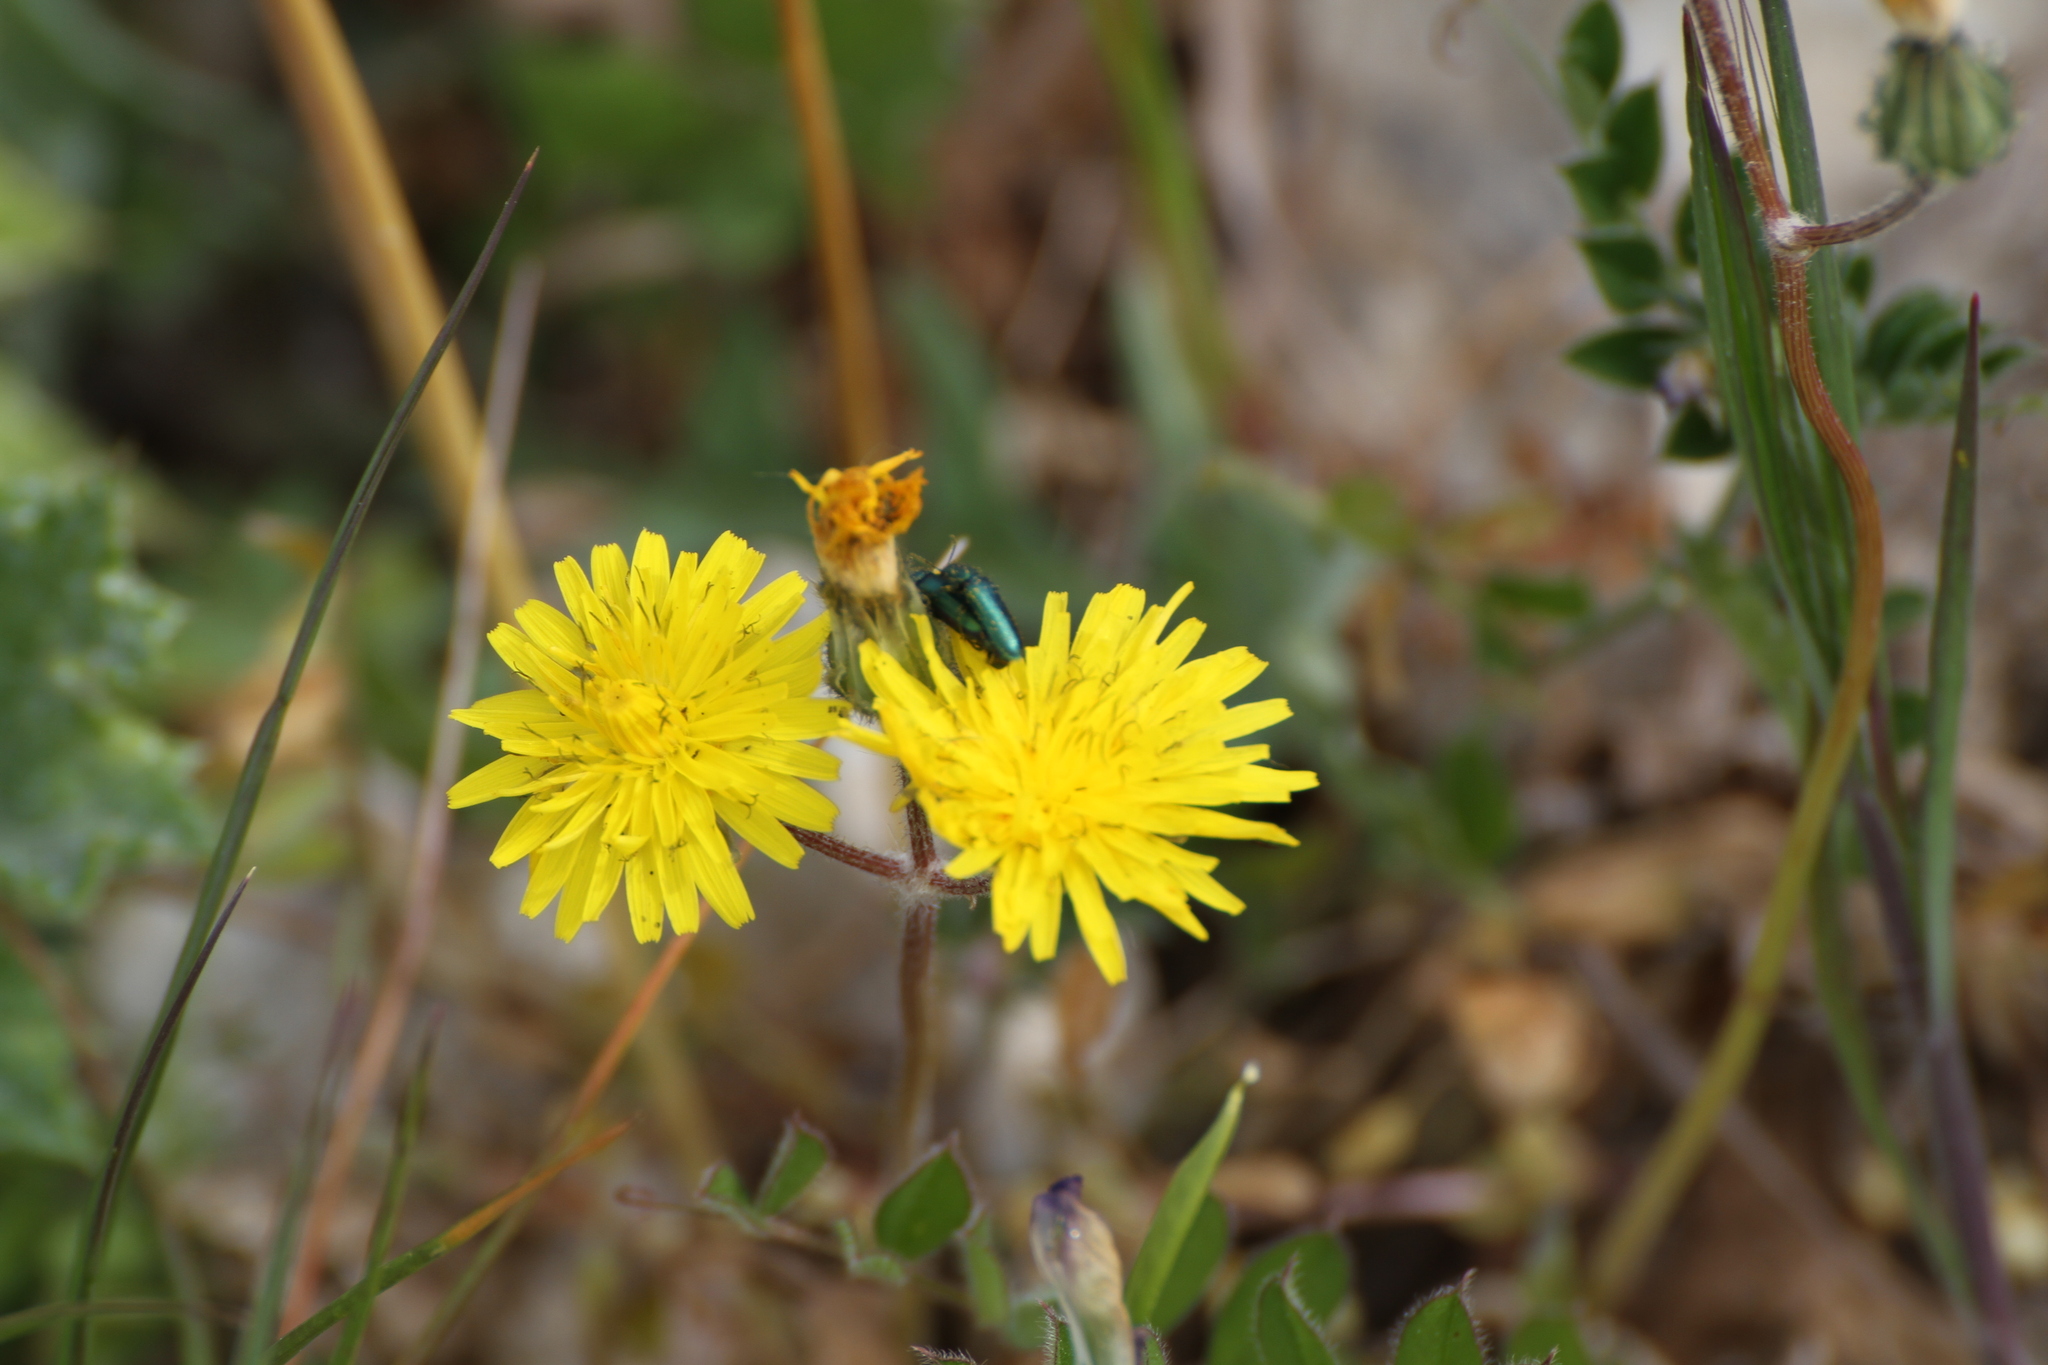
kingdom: Animalia
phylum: Arthropoda
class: Insecta
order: Coleoptera
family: Dasytidae
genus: Psilothrix
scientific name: Psilothrix viridicoerulea
